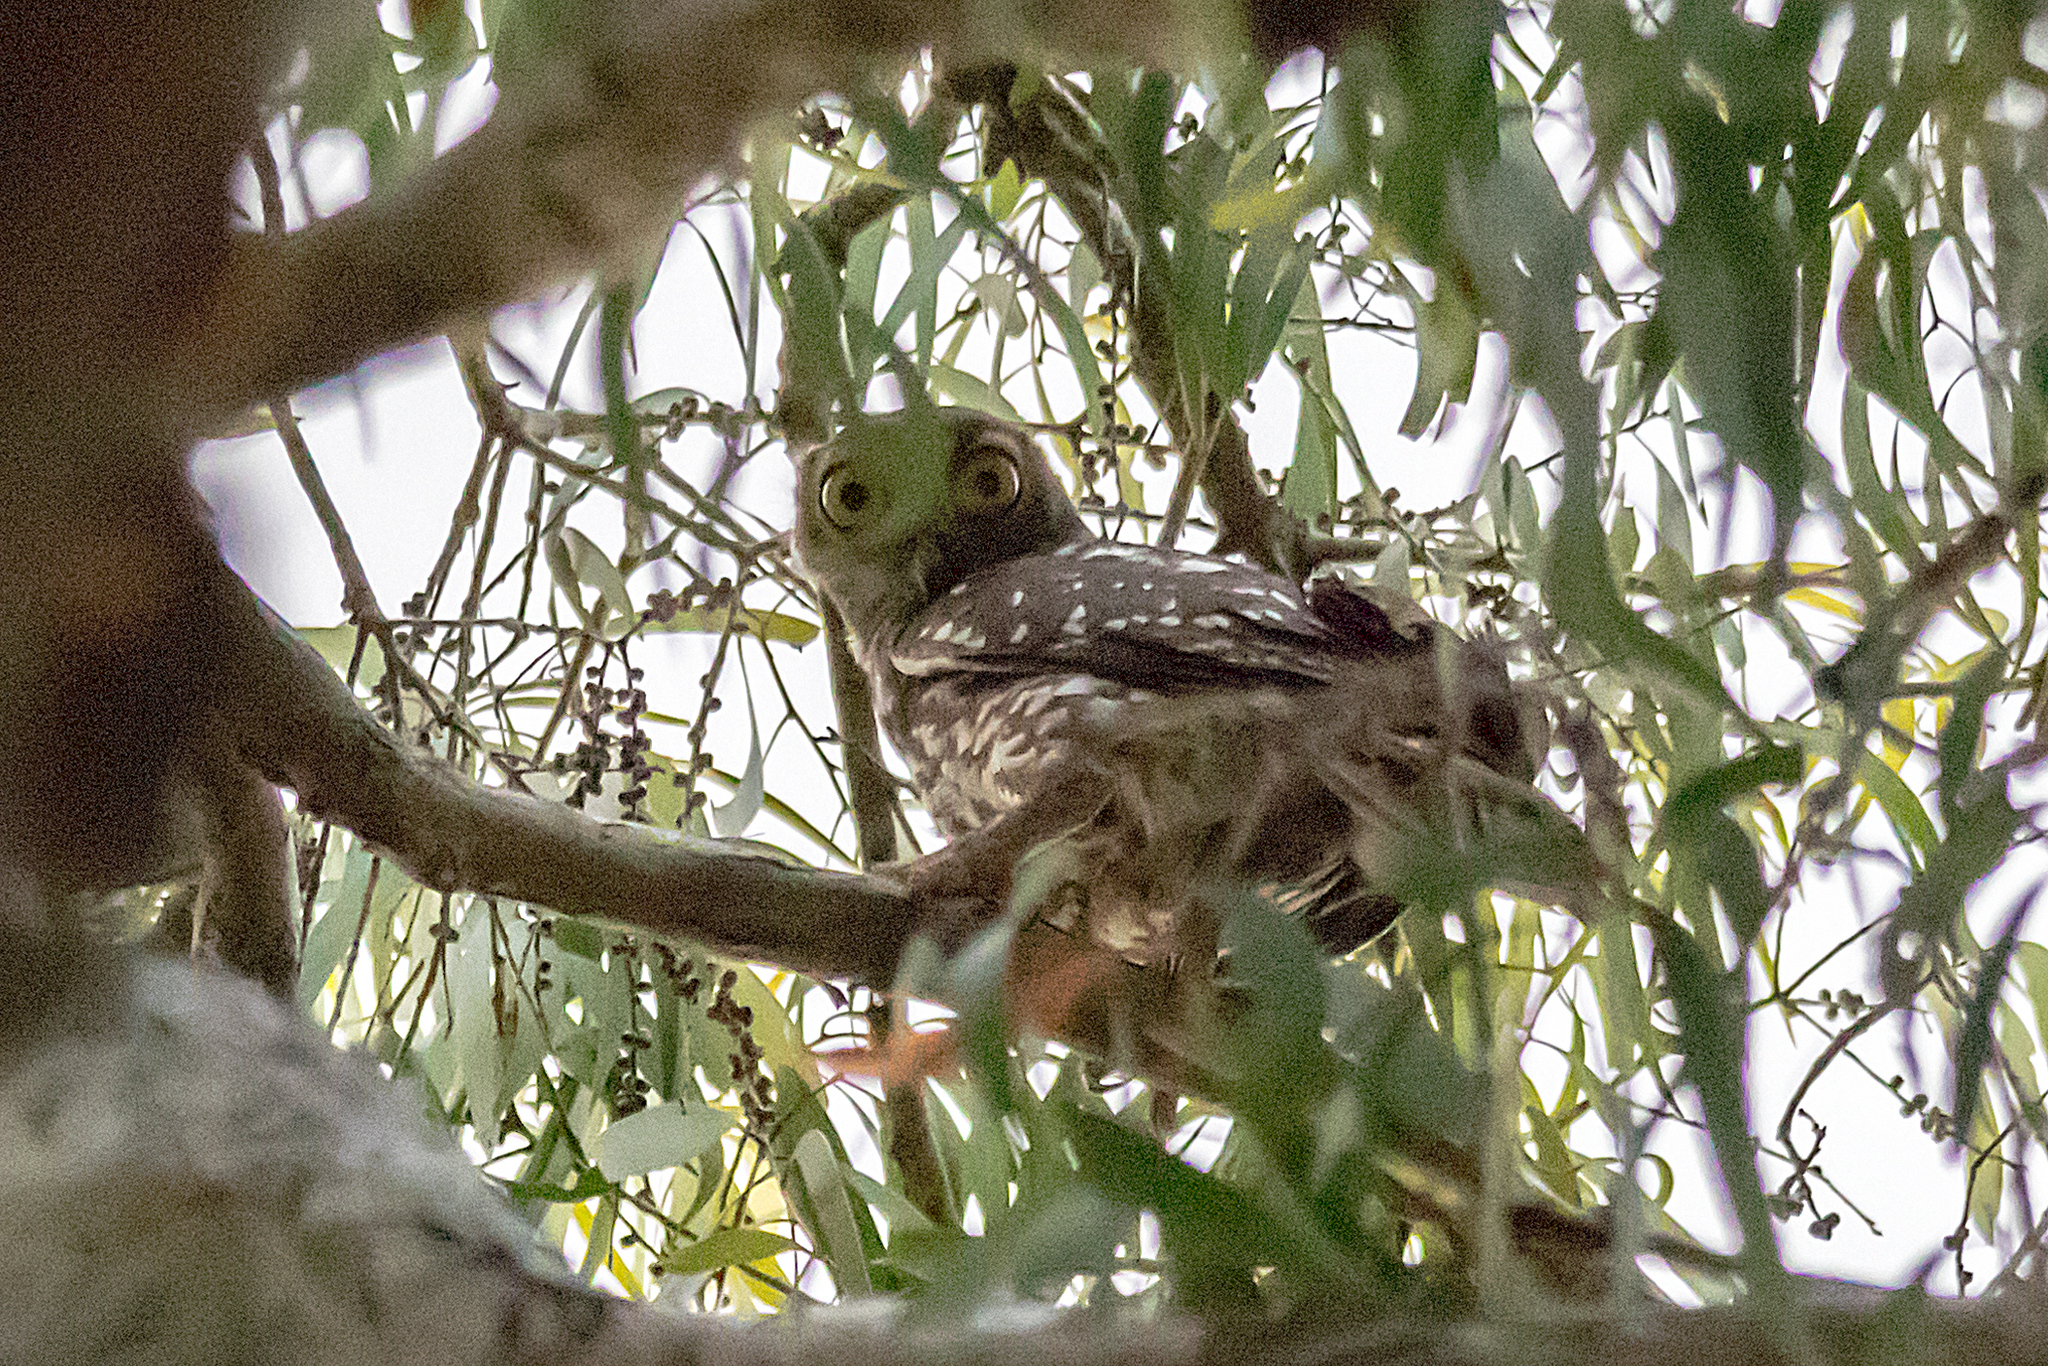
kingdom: Animalia
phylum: Chordata
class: Aves
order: Strigiformes
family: Strigidae
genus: Ninox
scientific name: Ninox connivens
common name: Barking owl
